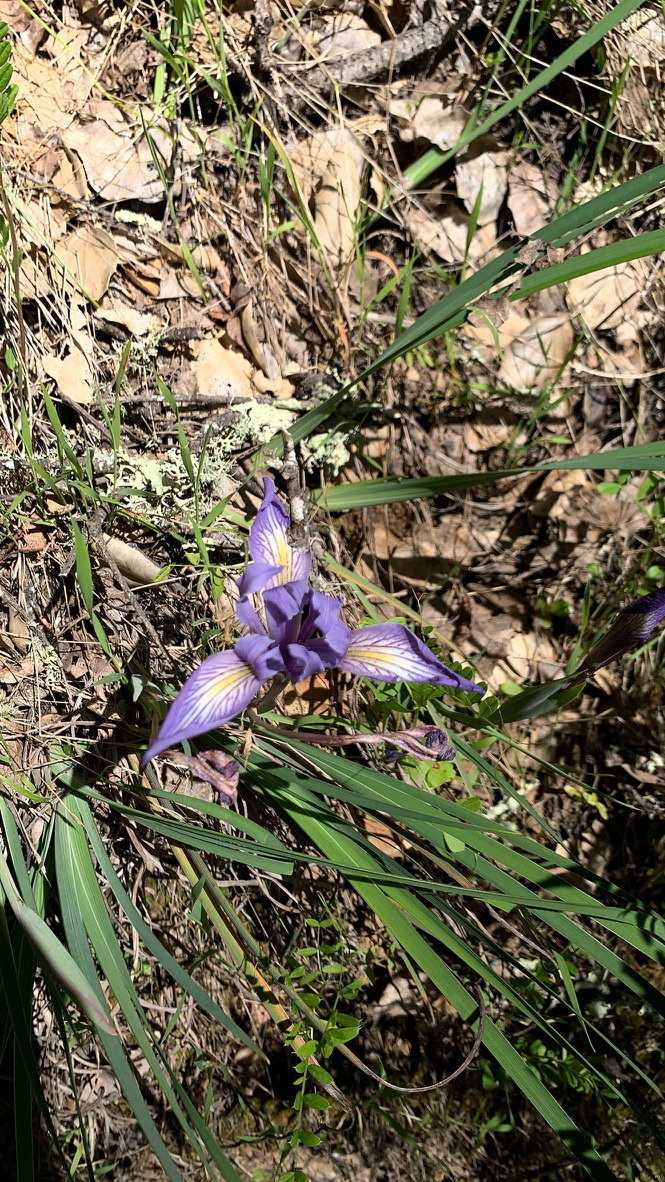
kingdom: Plantae
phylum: Tracheophyta
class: Liliopsida
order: Asparagales
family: Iridaceae
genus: Iris
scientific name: Iris macrosiphon
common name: Ground iris
